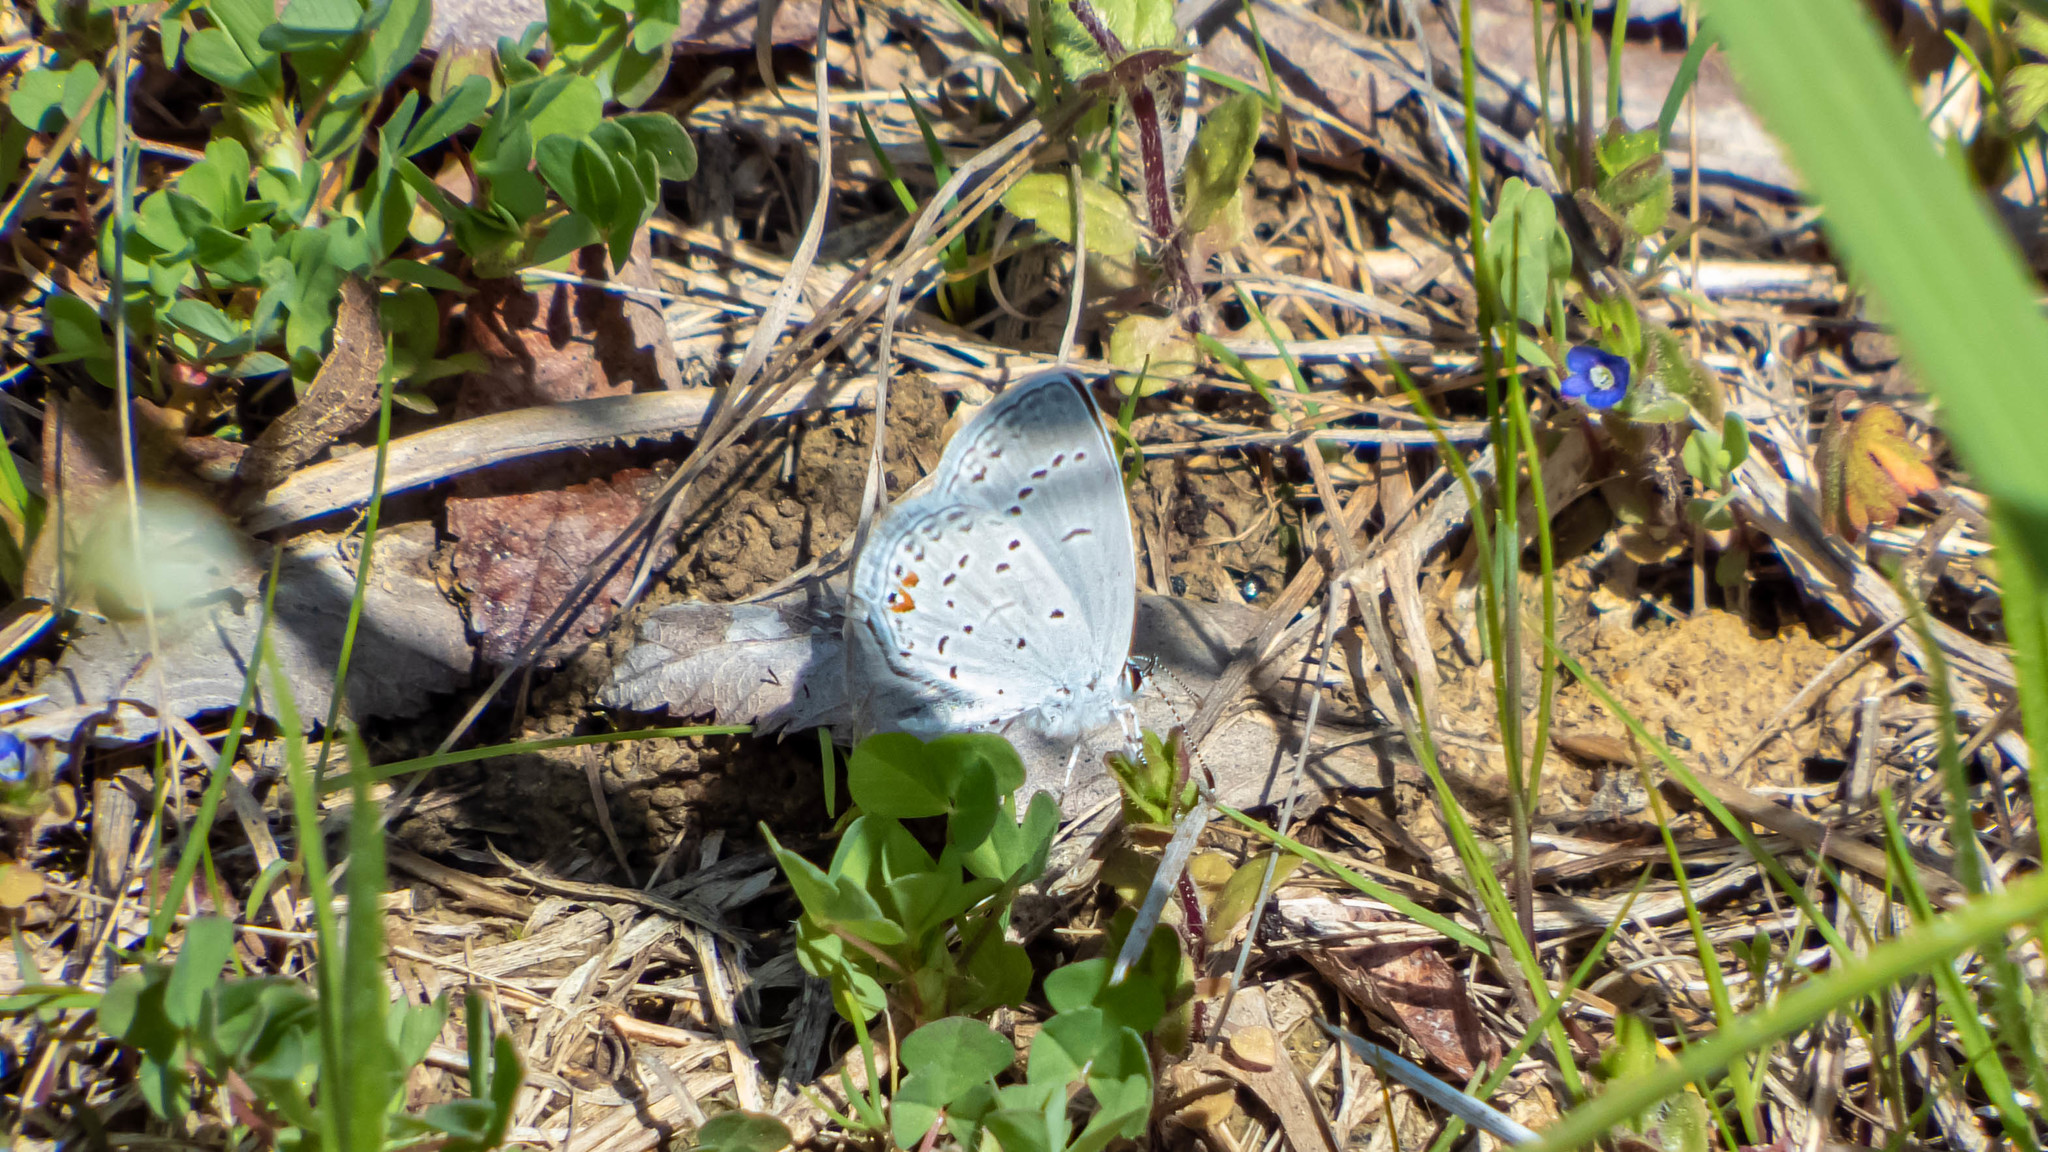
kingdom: Animalia
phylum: Arthropoda
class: Insecta
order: Lepidoptera
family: Lycaenidae
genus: Elkalyce
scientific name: Elkalyce comyntas
